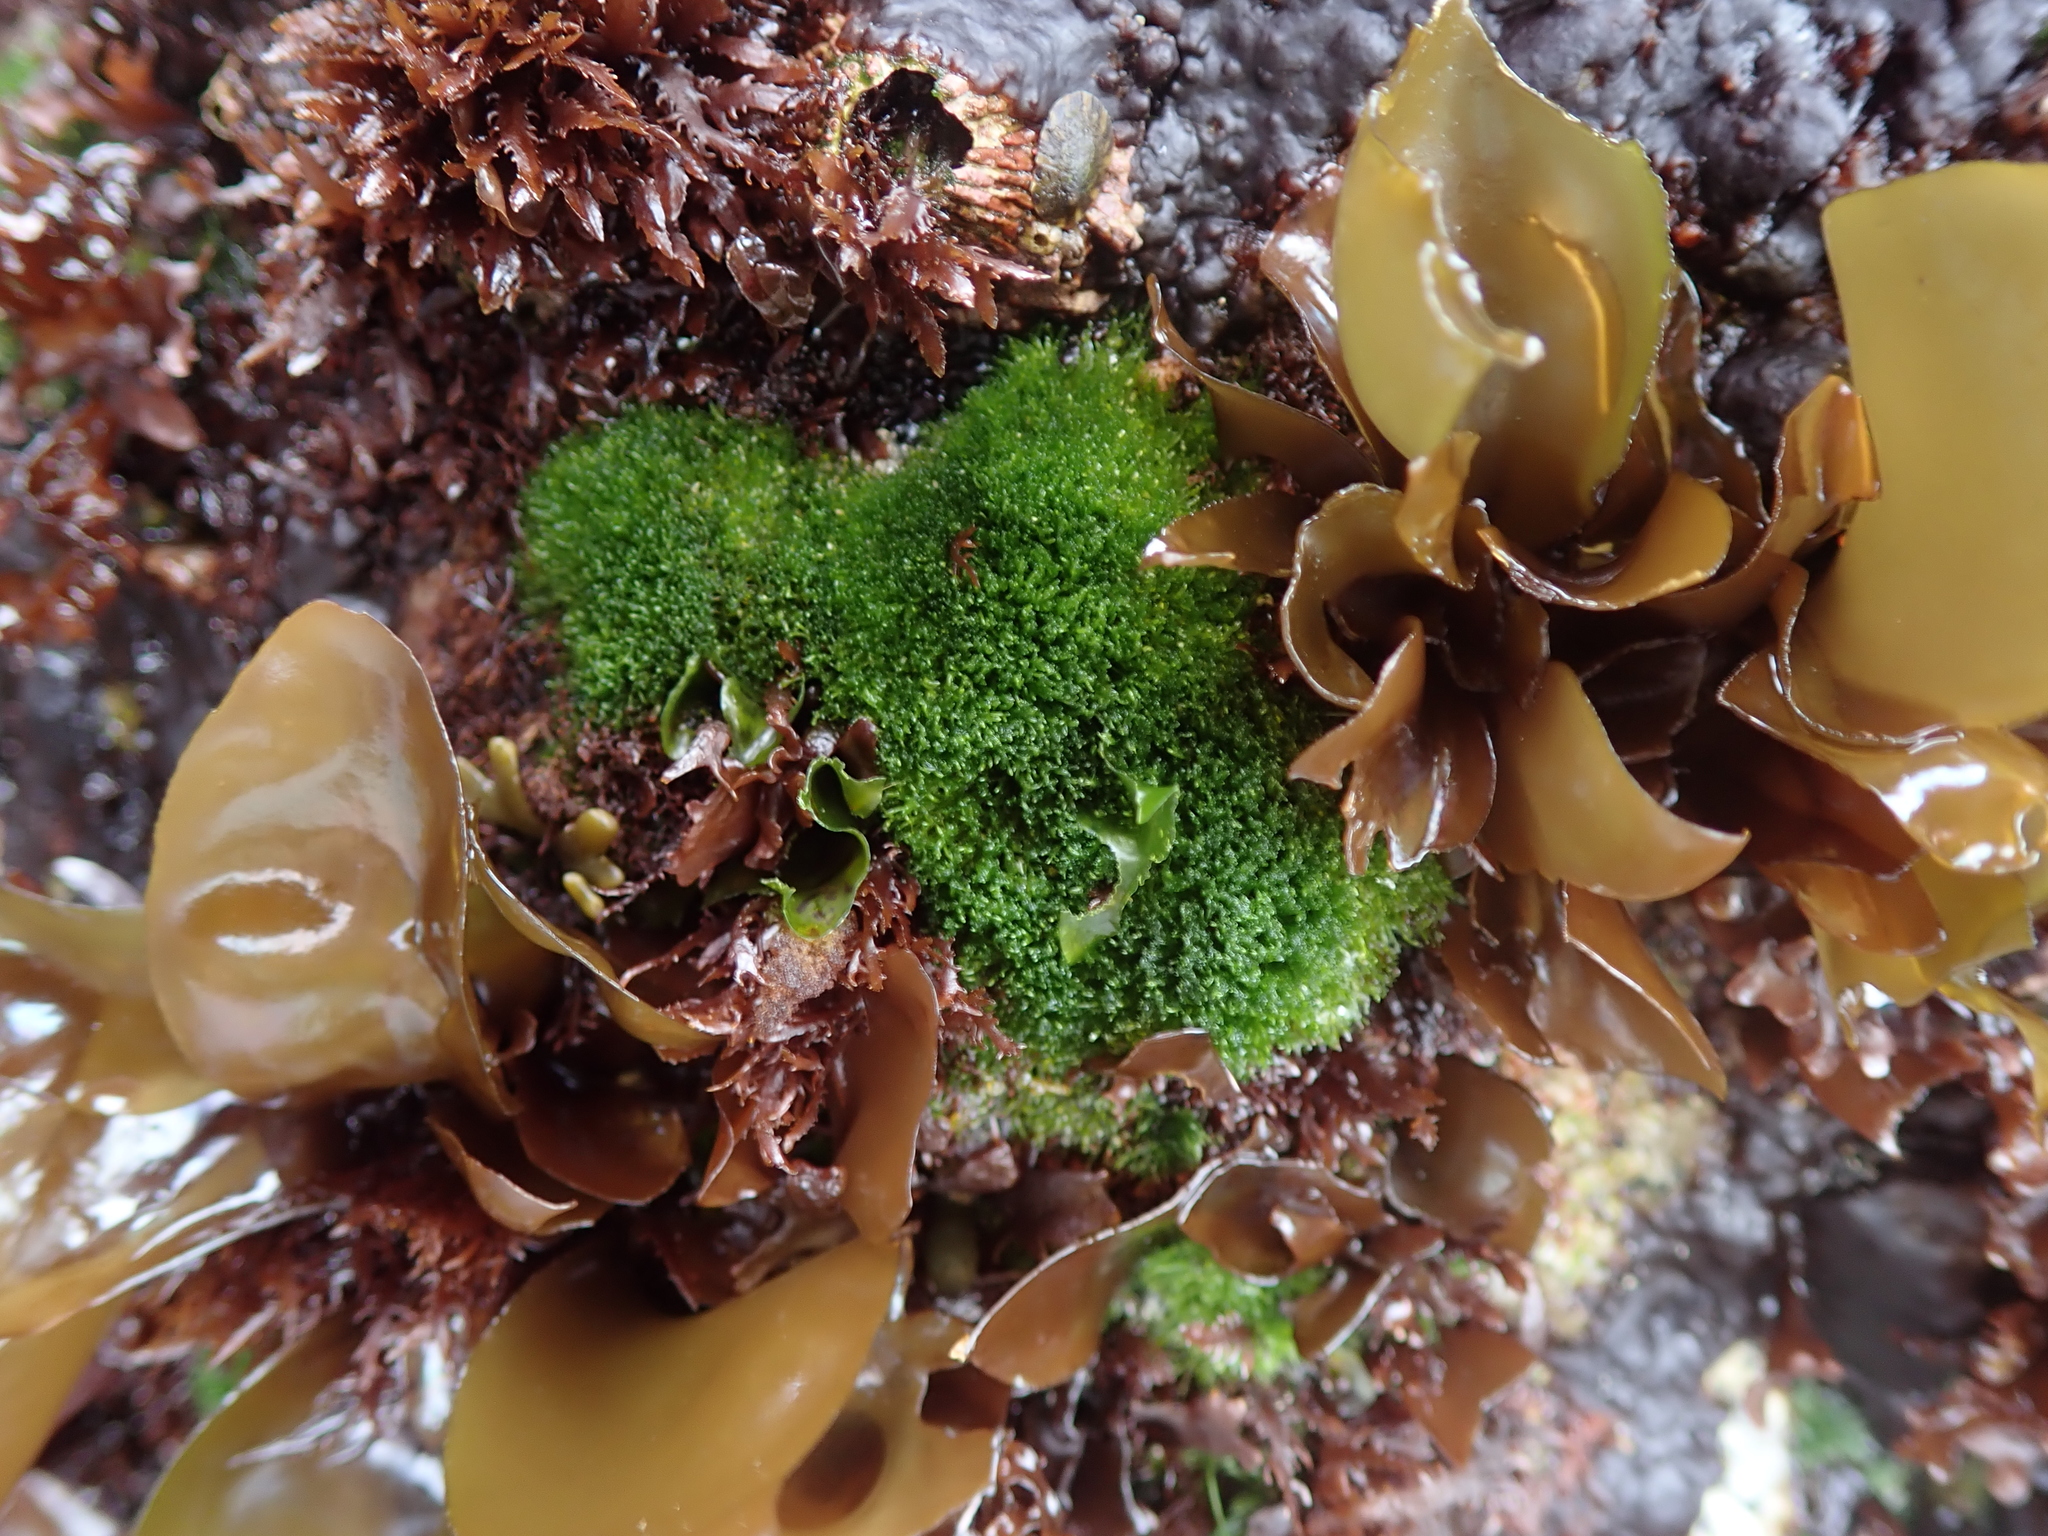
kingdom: Plantae
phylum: Chlorophyta
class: Ulvophyceae
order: Cladophorales
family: Cladophoraceae
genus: Cladophora
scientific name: Cladophora columbiana
